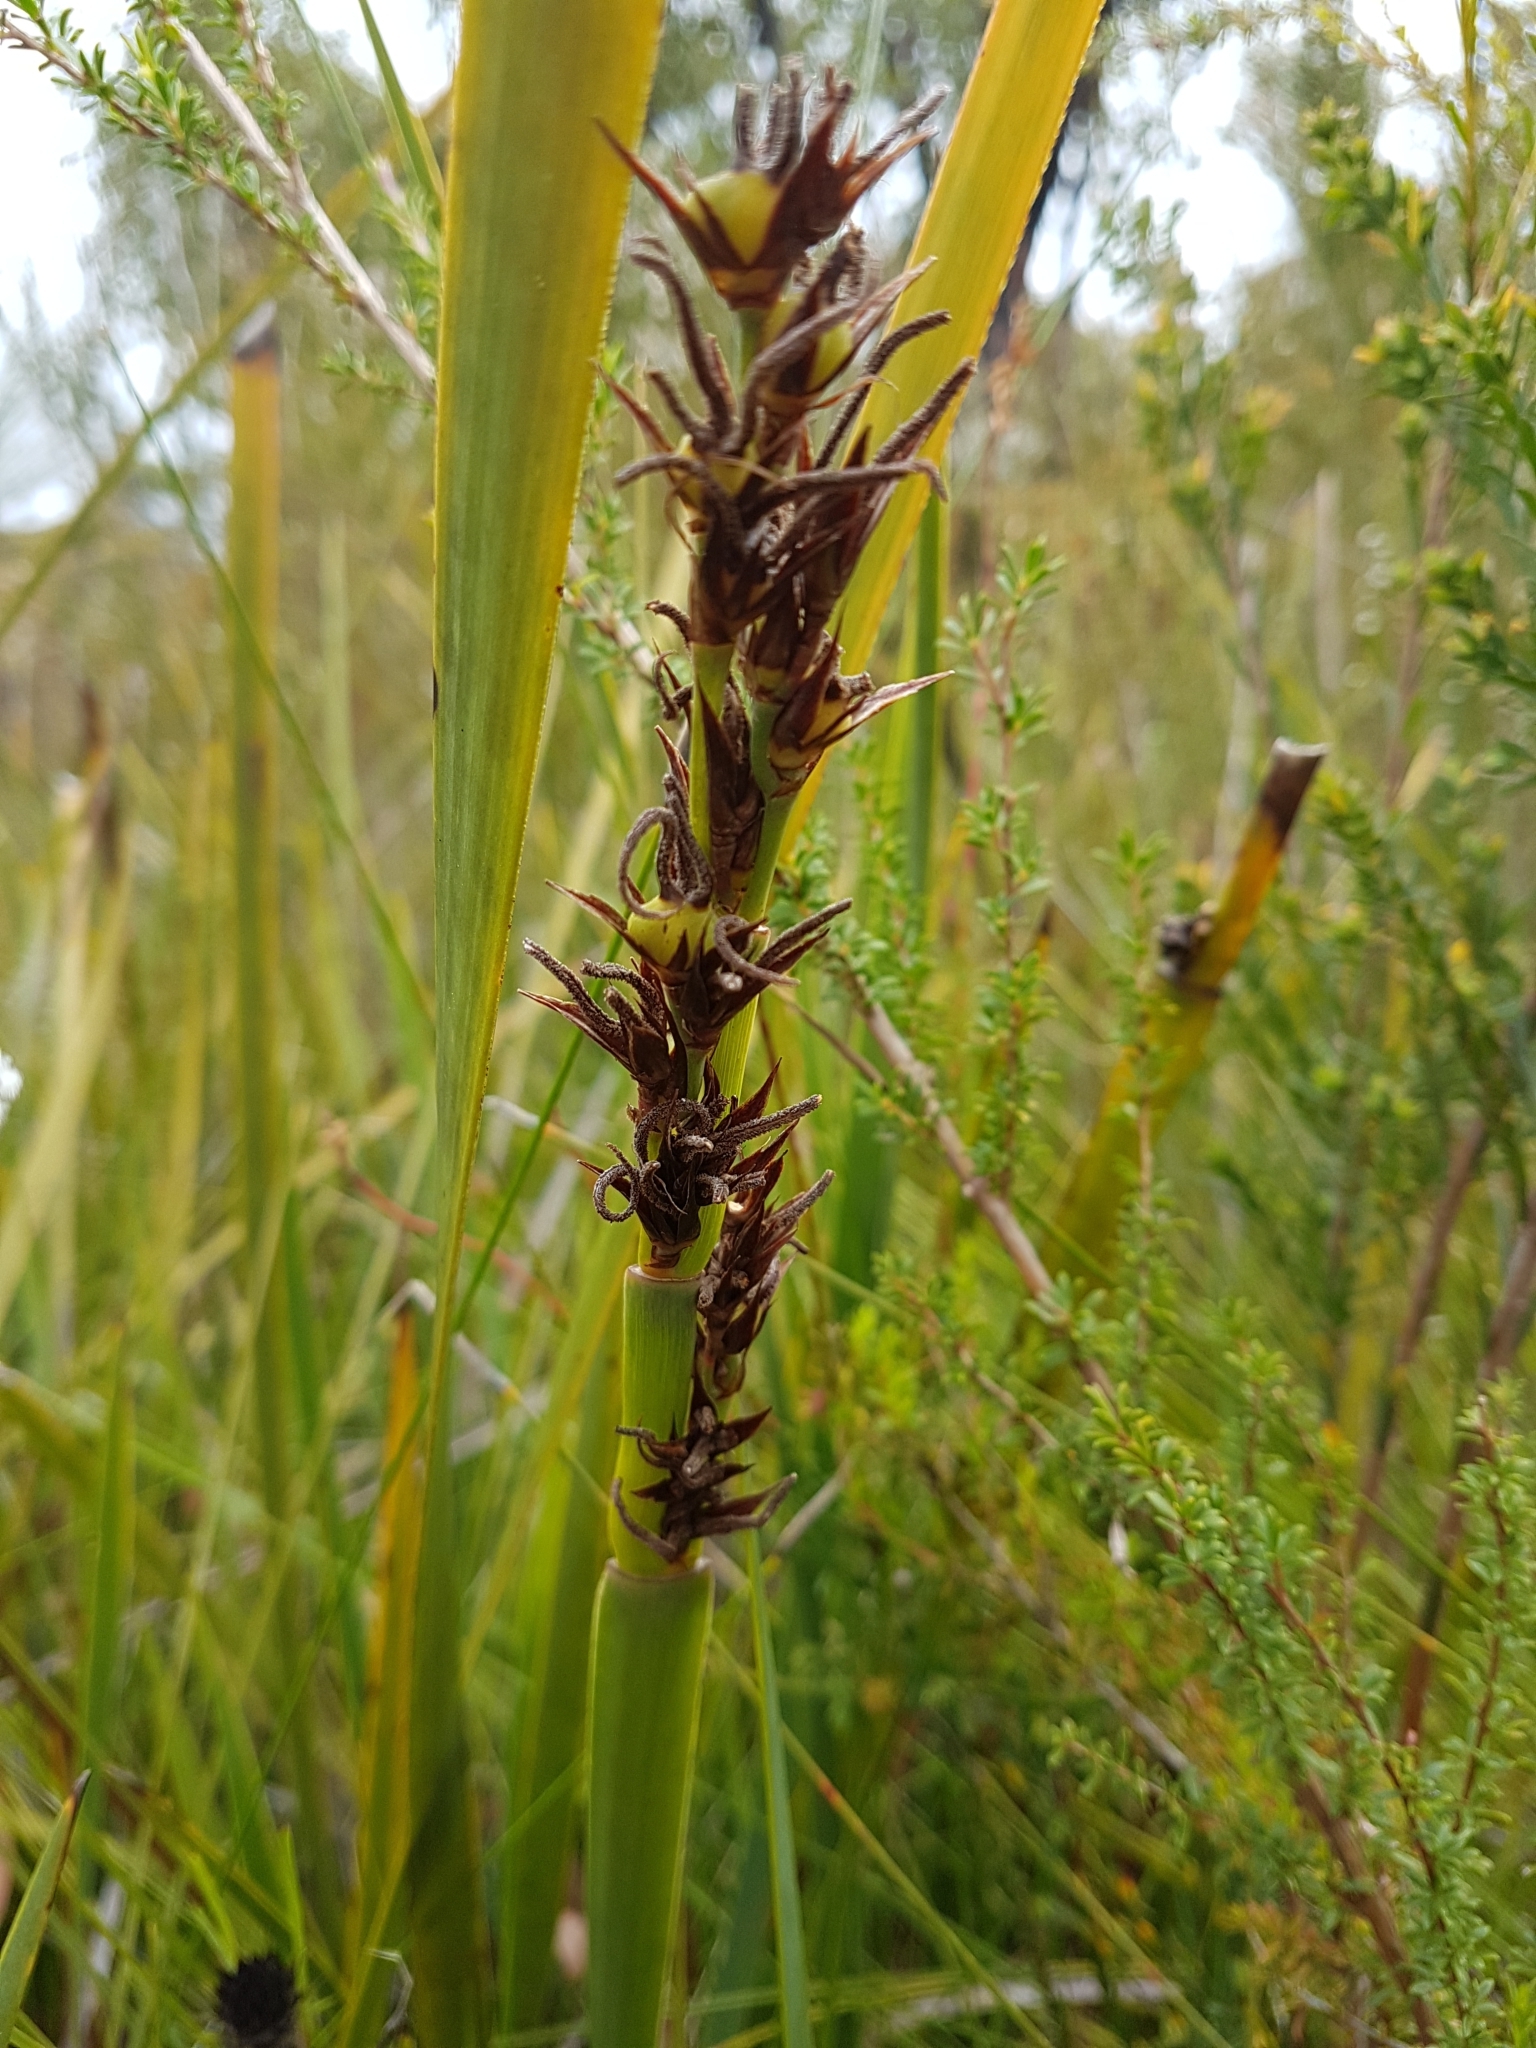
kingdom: Plantae
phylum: Tracheophyta
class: Liliopsida
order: Poales
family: Restionaceae
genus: Anarthria
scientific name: Anarthria scabra
